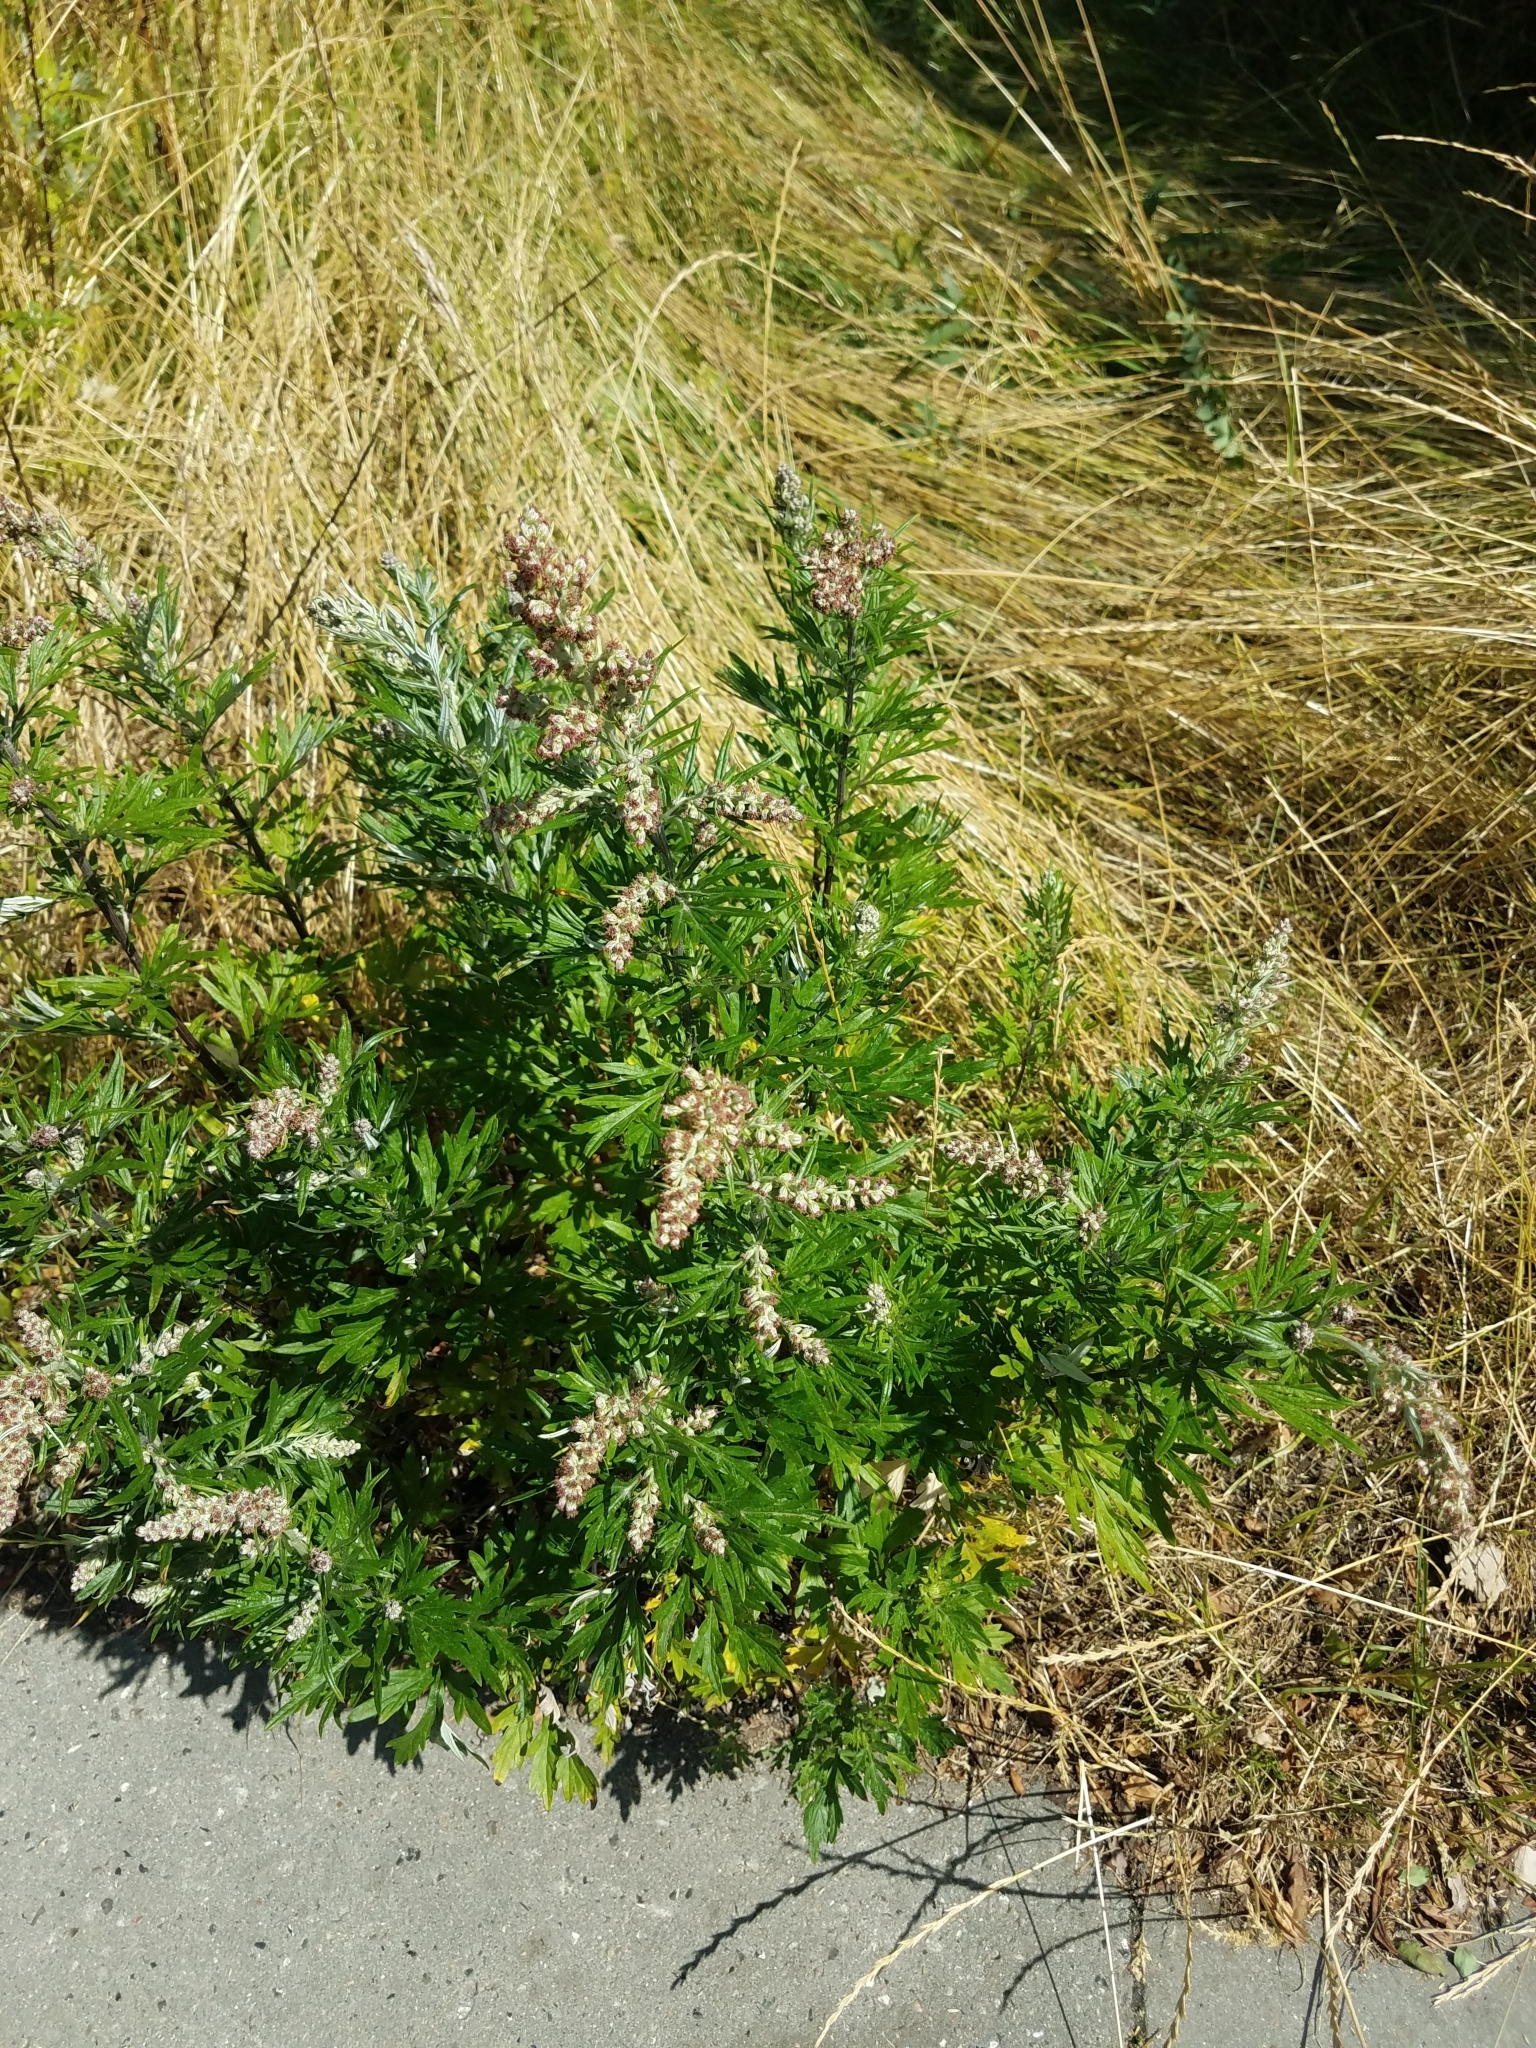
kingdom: Plantae
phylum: Tracheophyta
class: Magnoliopsida
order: Asterales
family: Asteraceae
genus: Artemisia
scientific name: Artemisia vulgaris
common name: Mugwort
